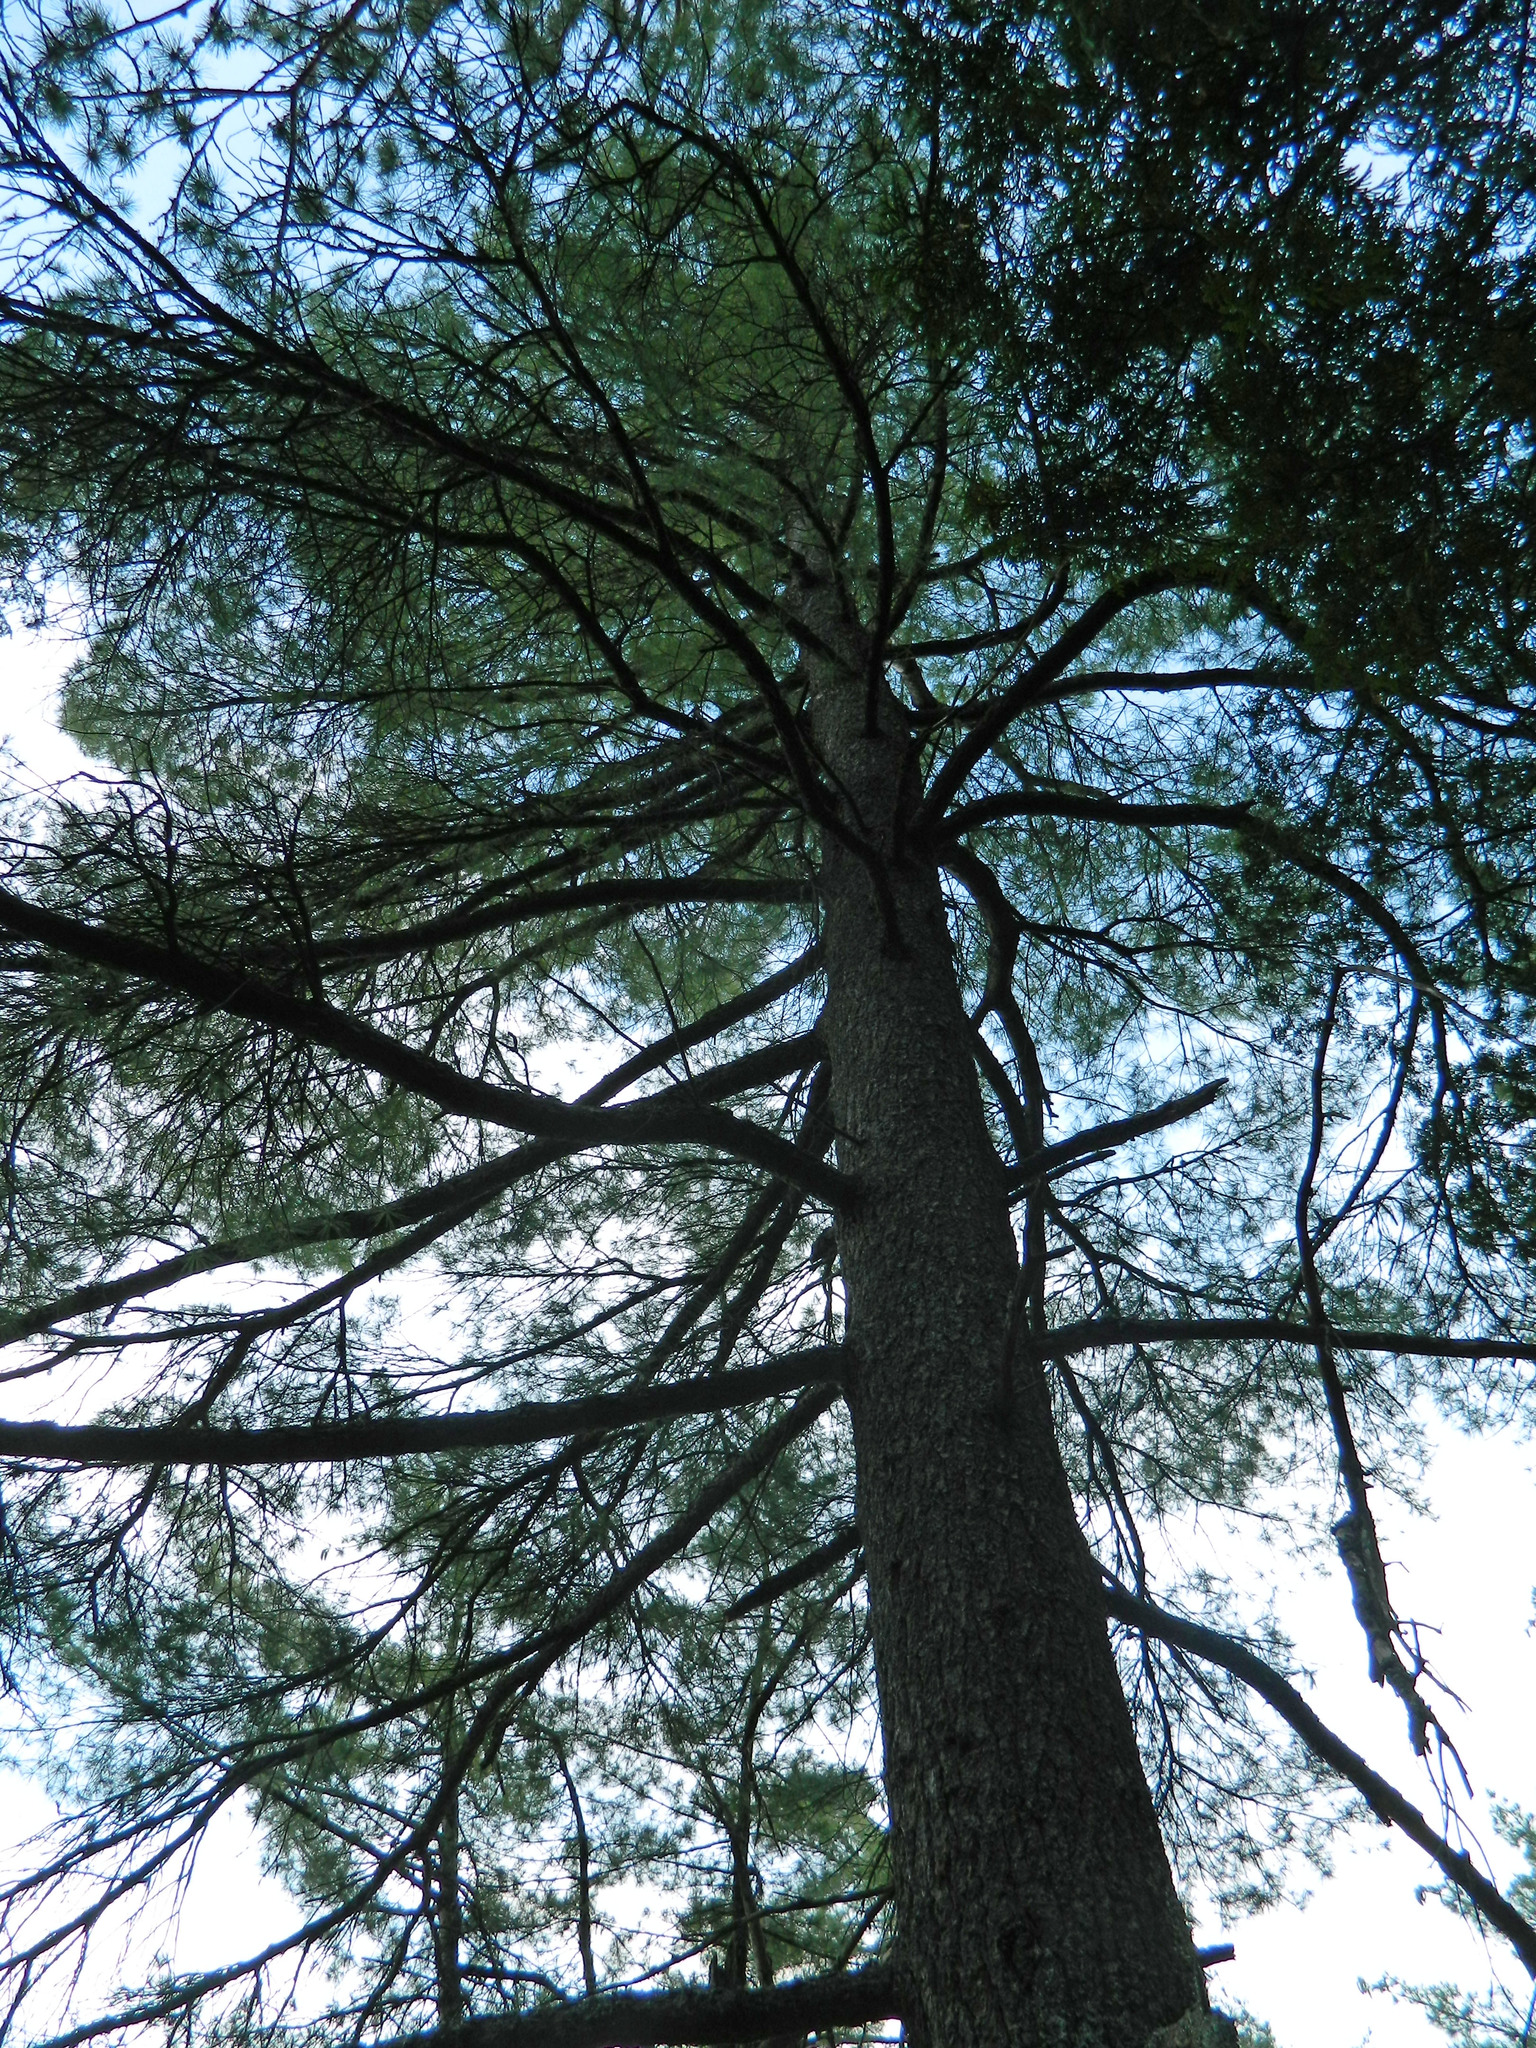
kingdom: Plantae
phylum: Tracheophyta
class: Pinopsida
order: Pinales
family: Pinaceae
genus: Pinus
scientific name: Pinus strobus
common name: Weymouth pine
